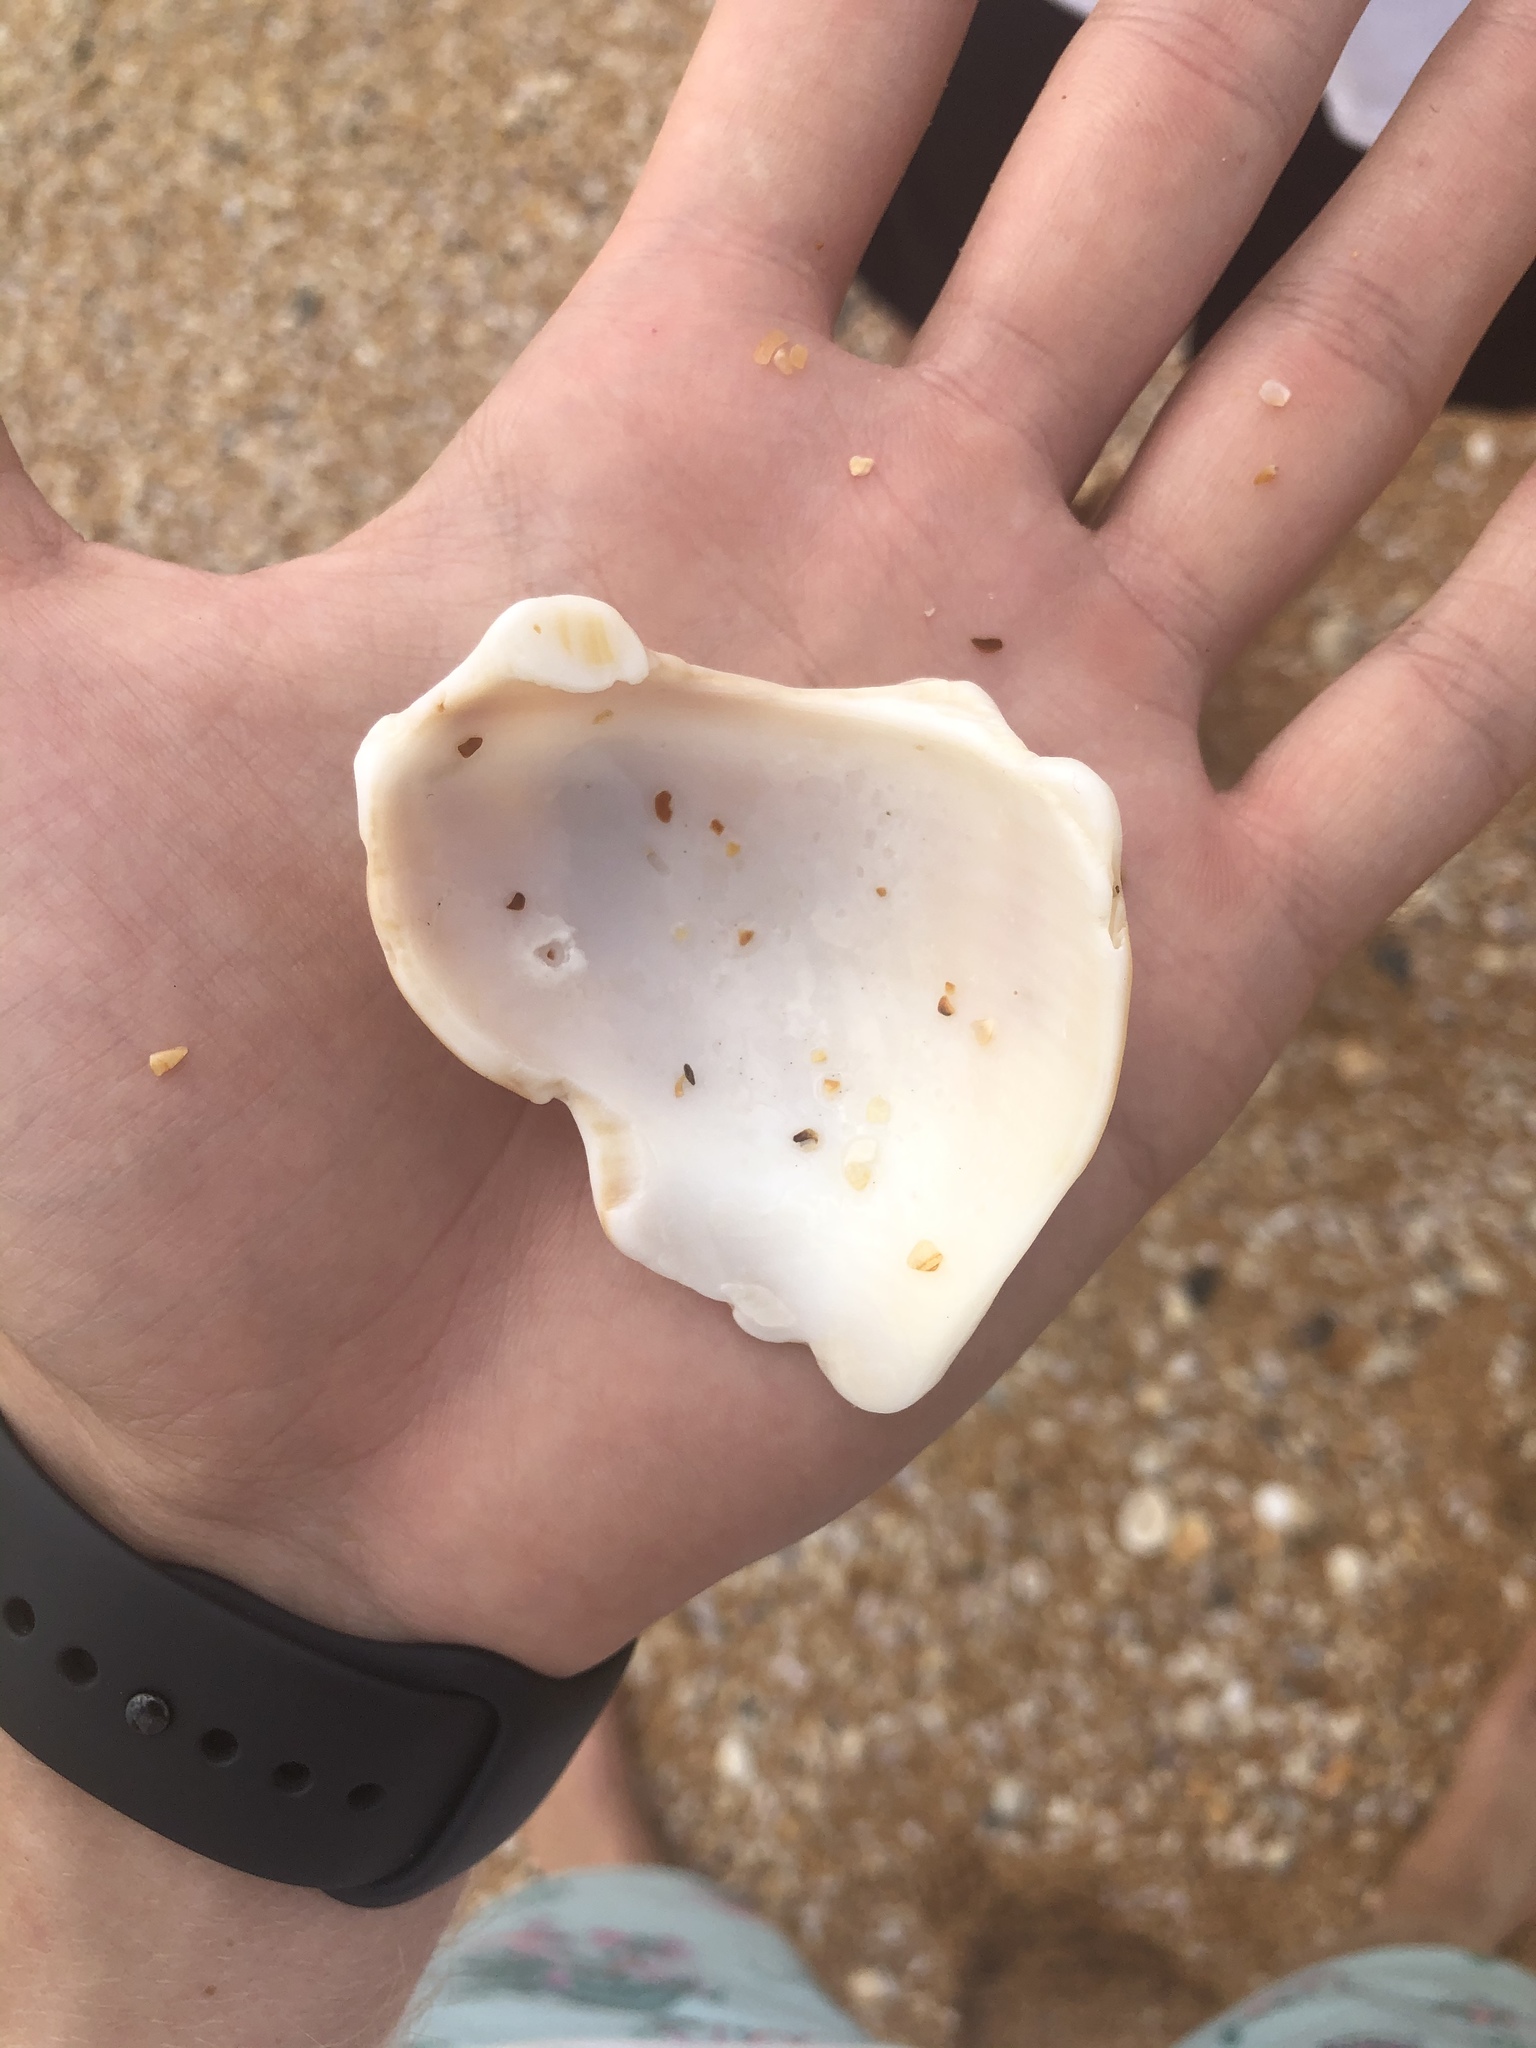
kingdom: Animalia
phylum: Mollusca
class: Gastropoda
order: Neogastropoda
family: Busyconidae
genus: Busycon
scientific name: Busycon carica
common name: Knobbed whelk
